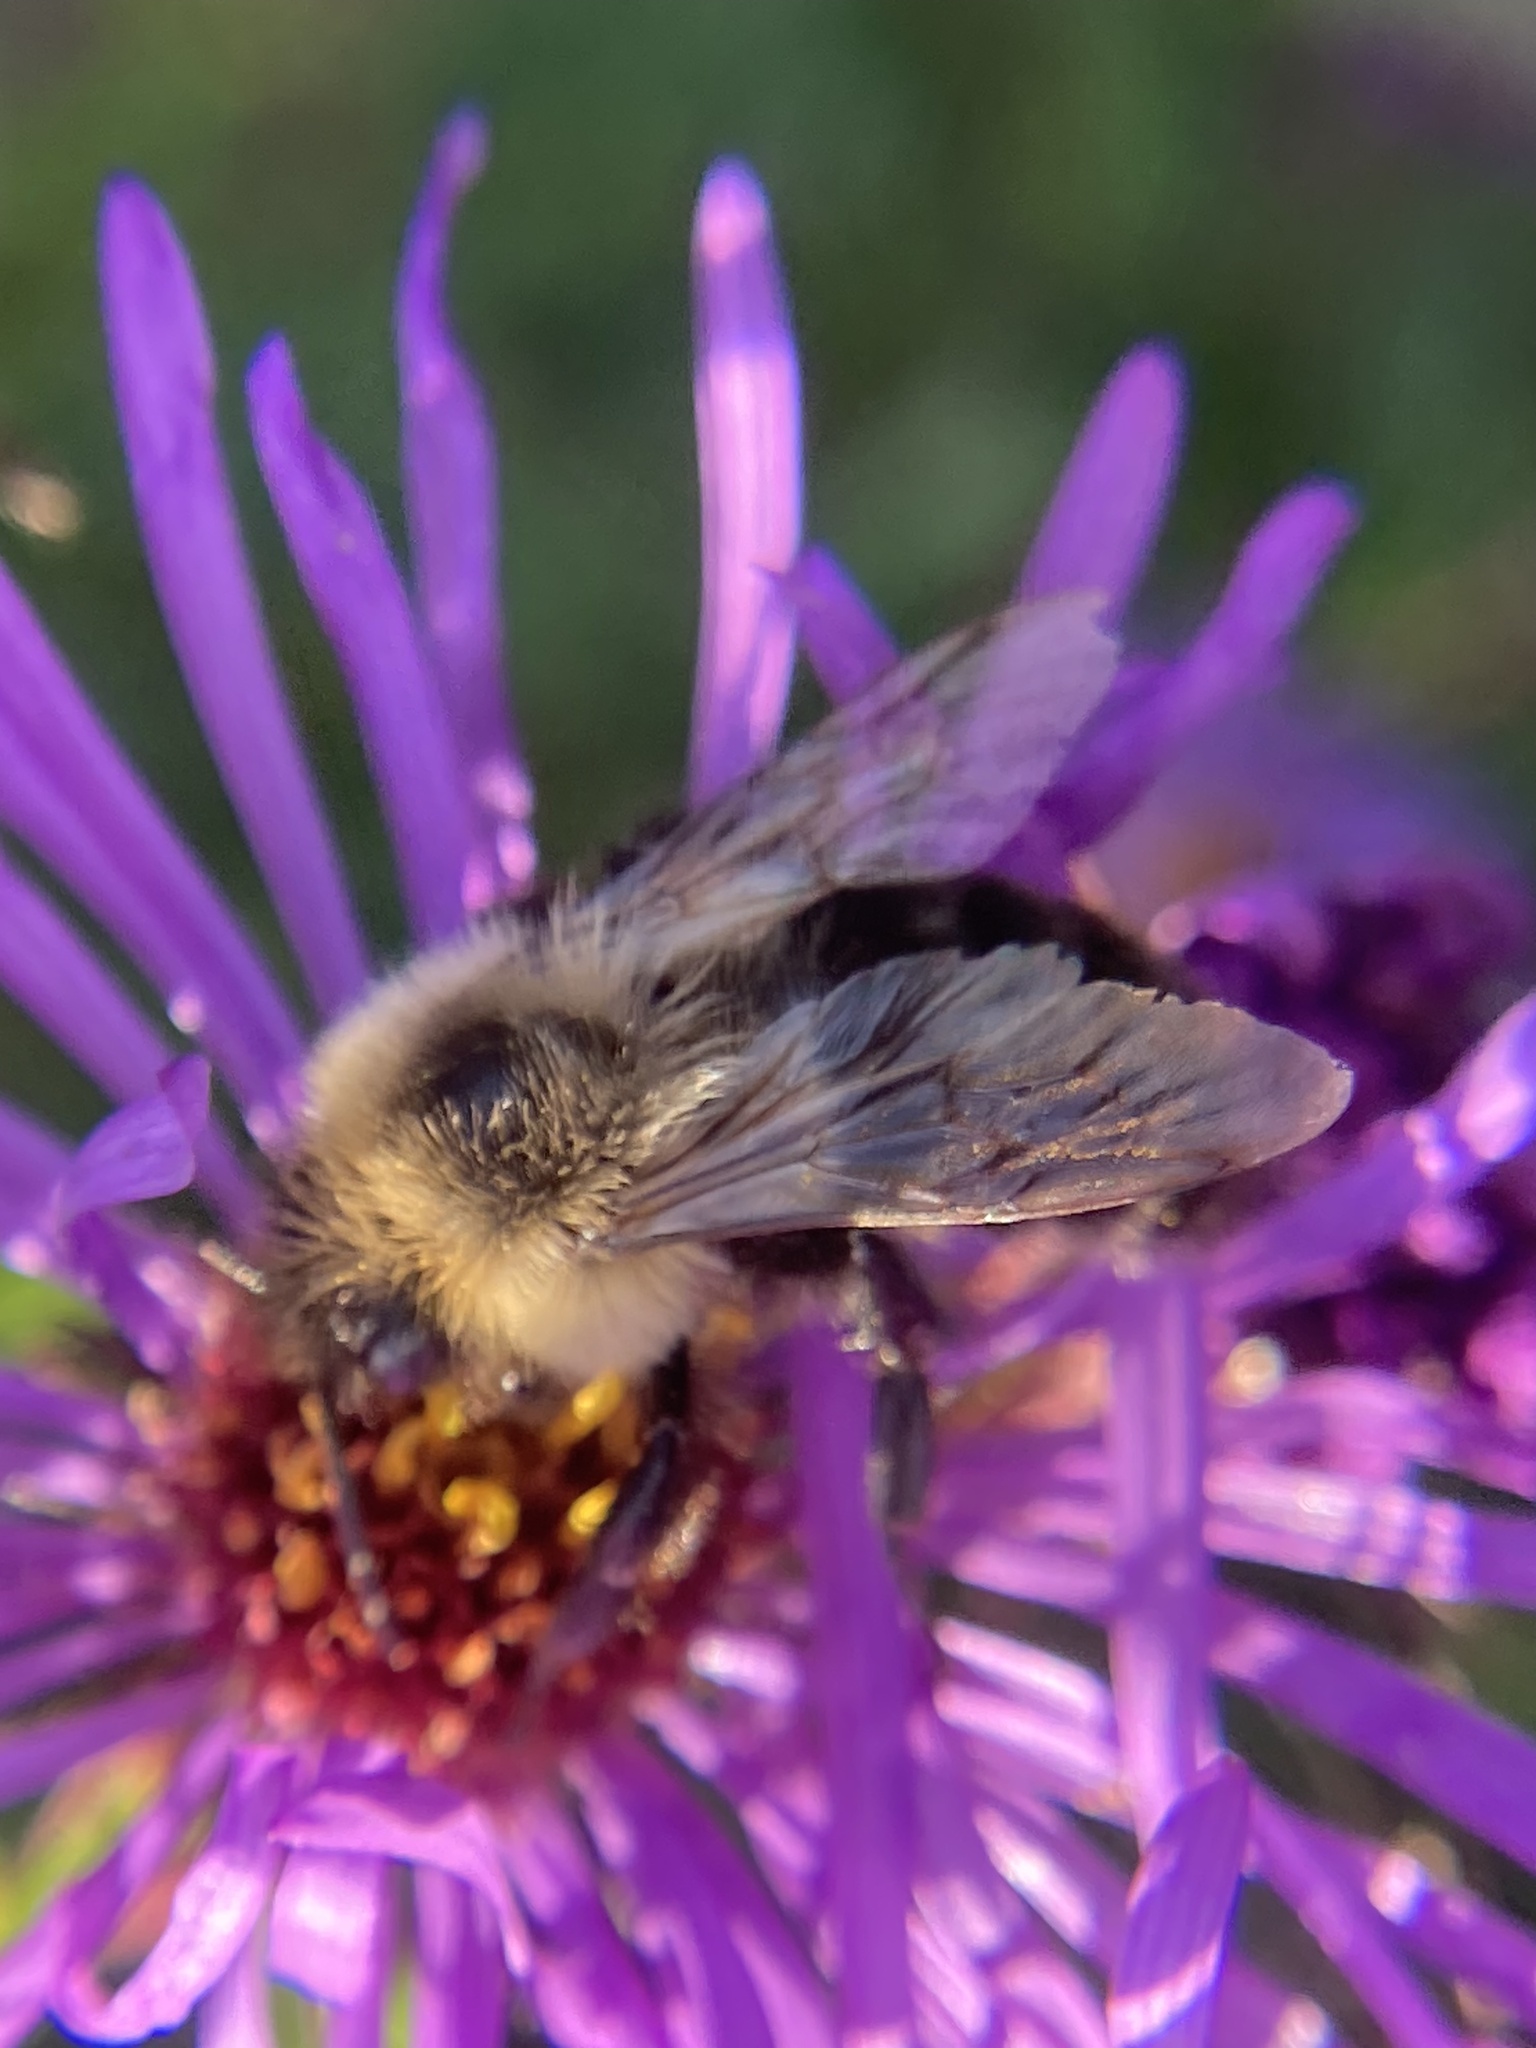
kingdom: Animalia
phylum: Arthropoda
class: Insecta
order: Hymenoptera
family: Apidae
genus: Bombus
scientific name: Bombus impatiens
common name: Common eastern bumble bee
